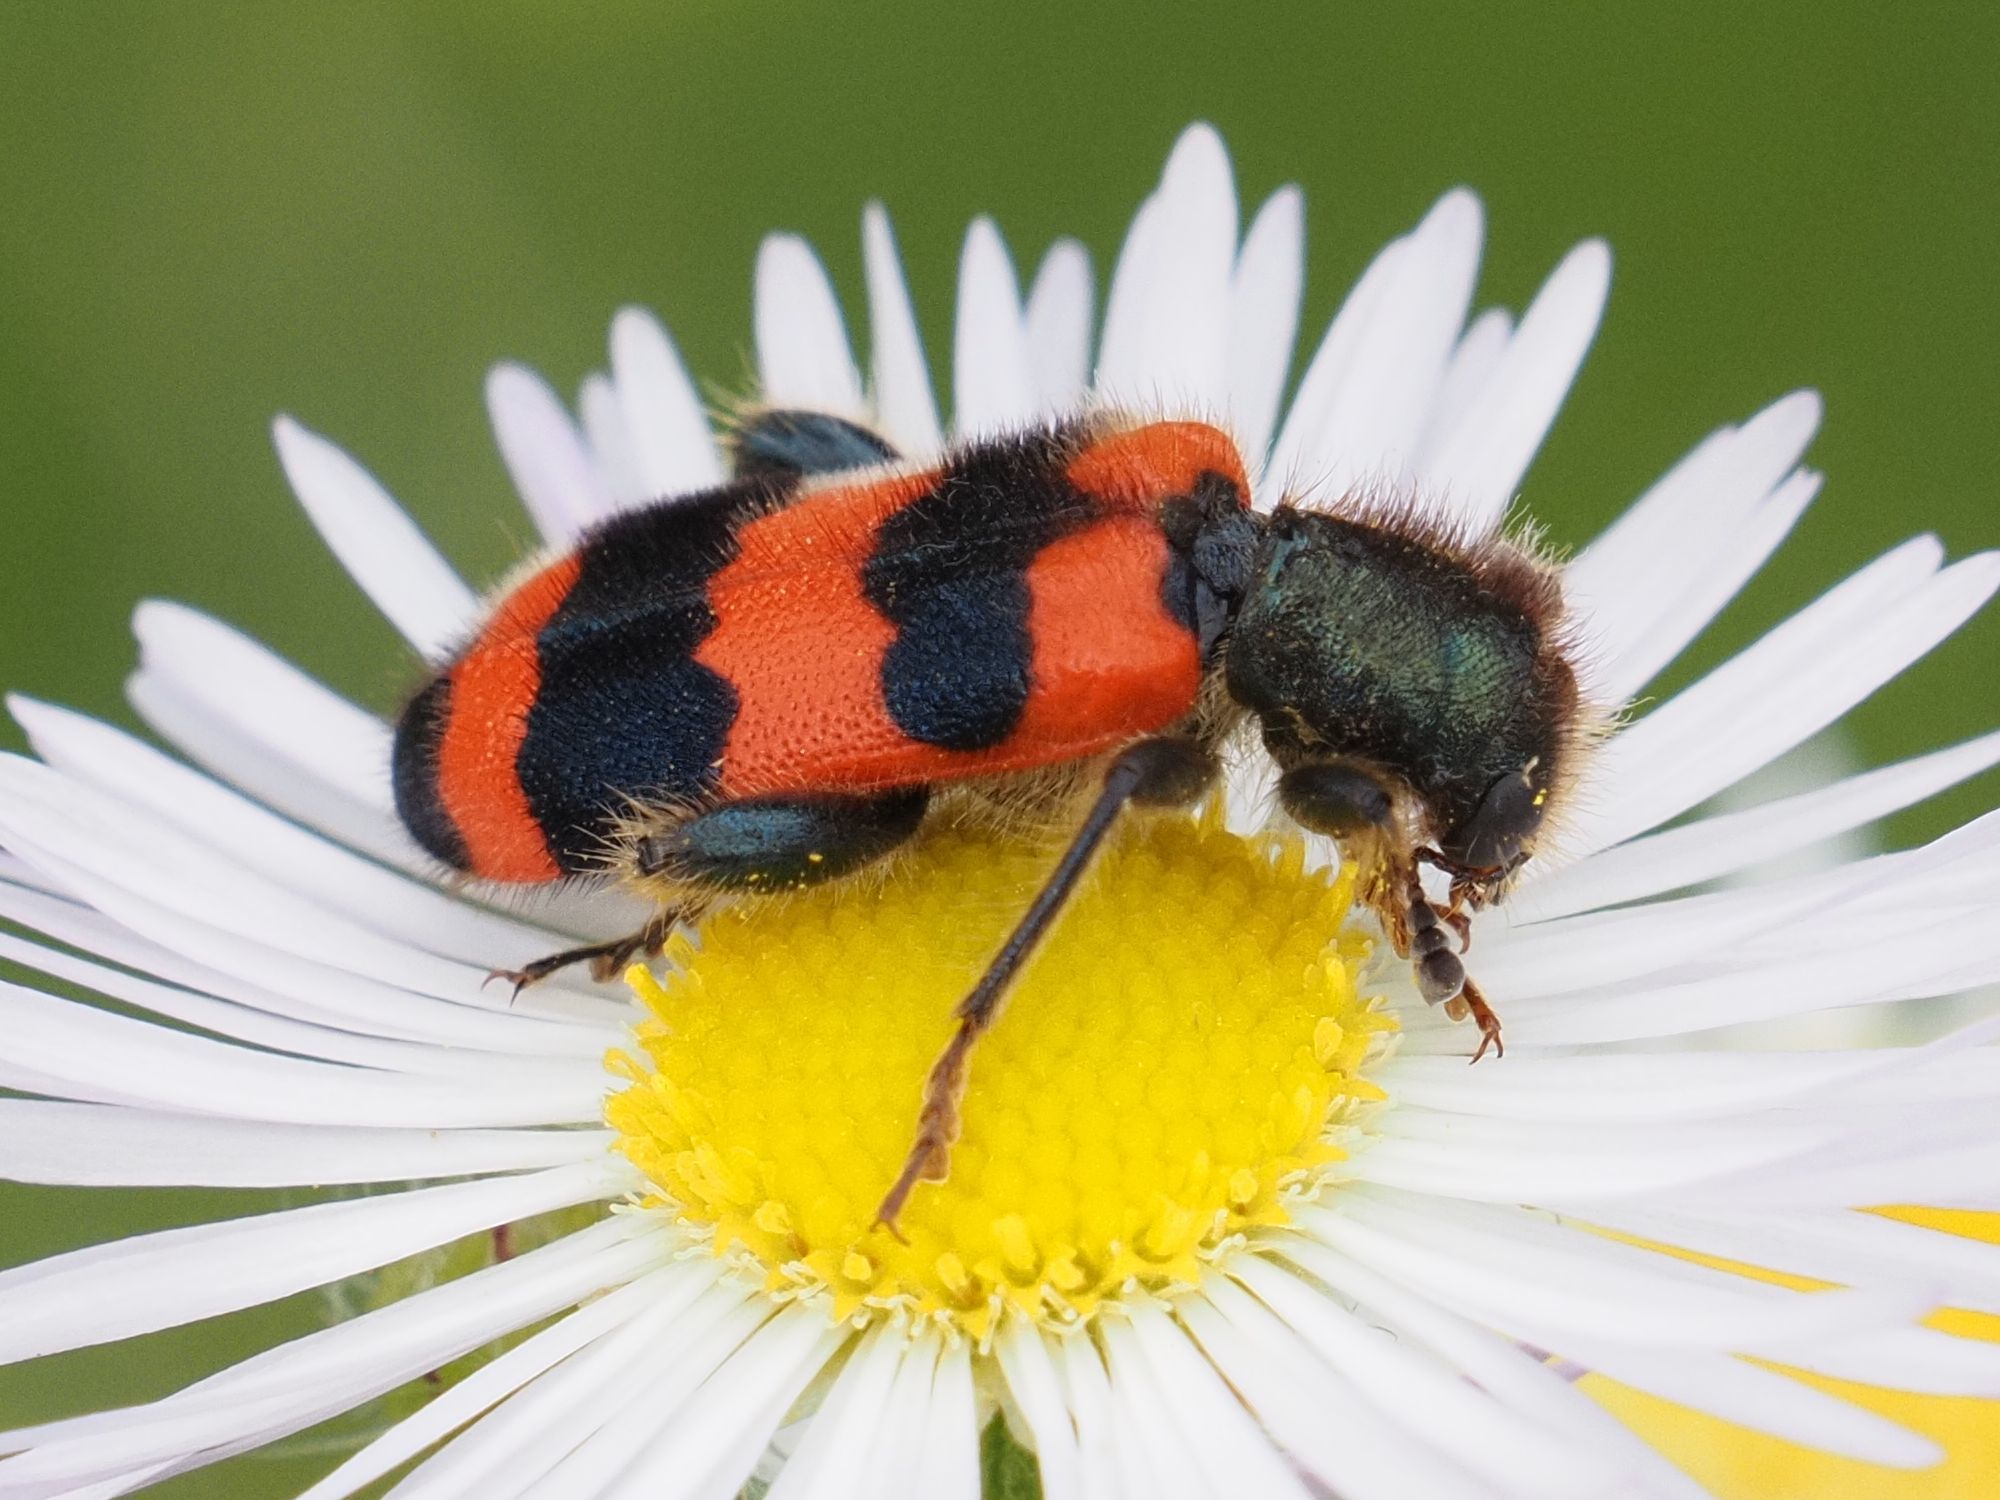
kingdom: Animalia
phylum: Arthropoda
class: Insecta
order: Coleoptera
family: Cleridae
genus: Trichodes
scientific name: Trichodes apiarius
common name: Bee-eating beetle
